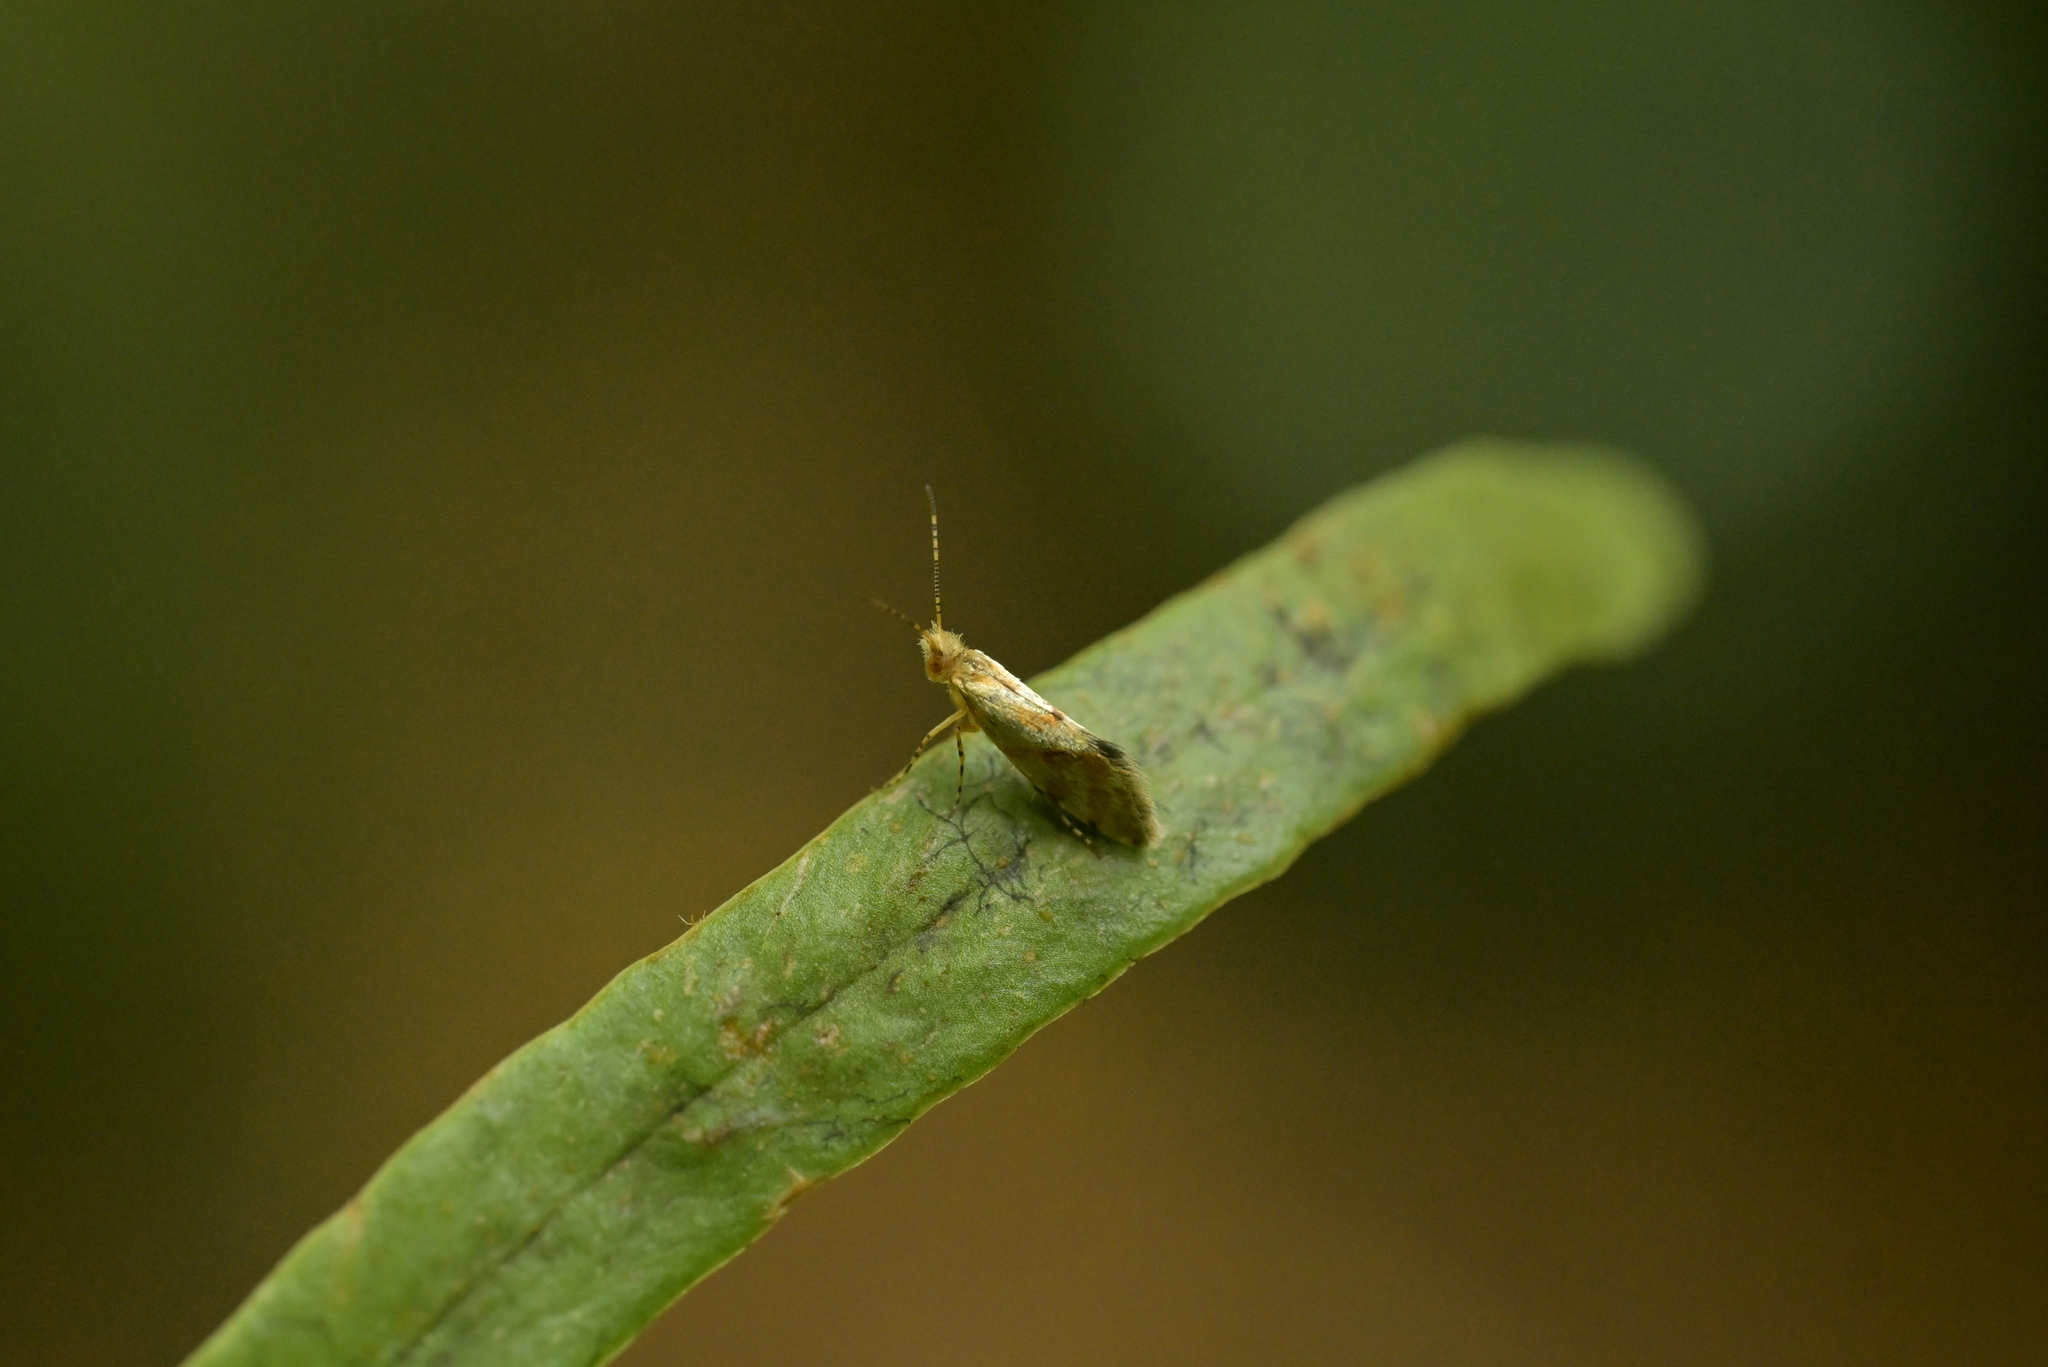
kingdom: Animalia
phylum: Arthropoda
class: Insecta
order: Lepidoptera
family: Micropterigidae
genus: Sabatinca
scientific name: Sabatinca chalcophanes
